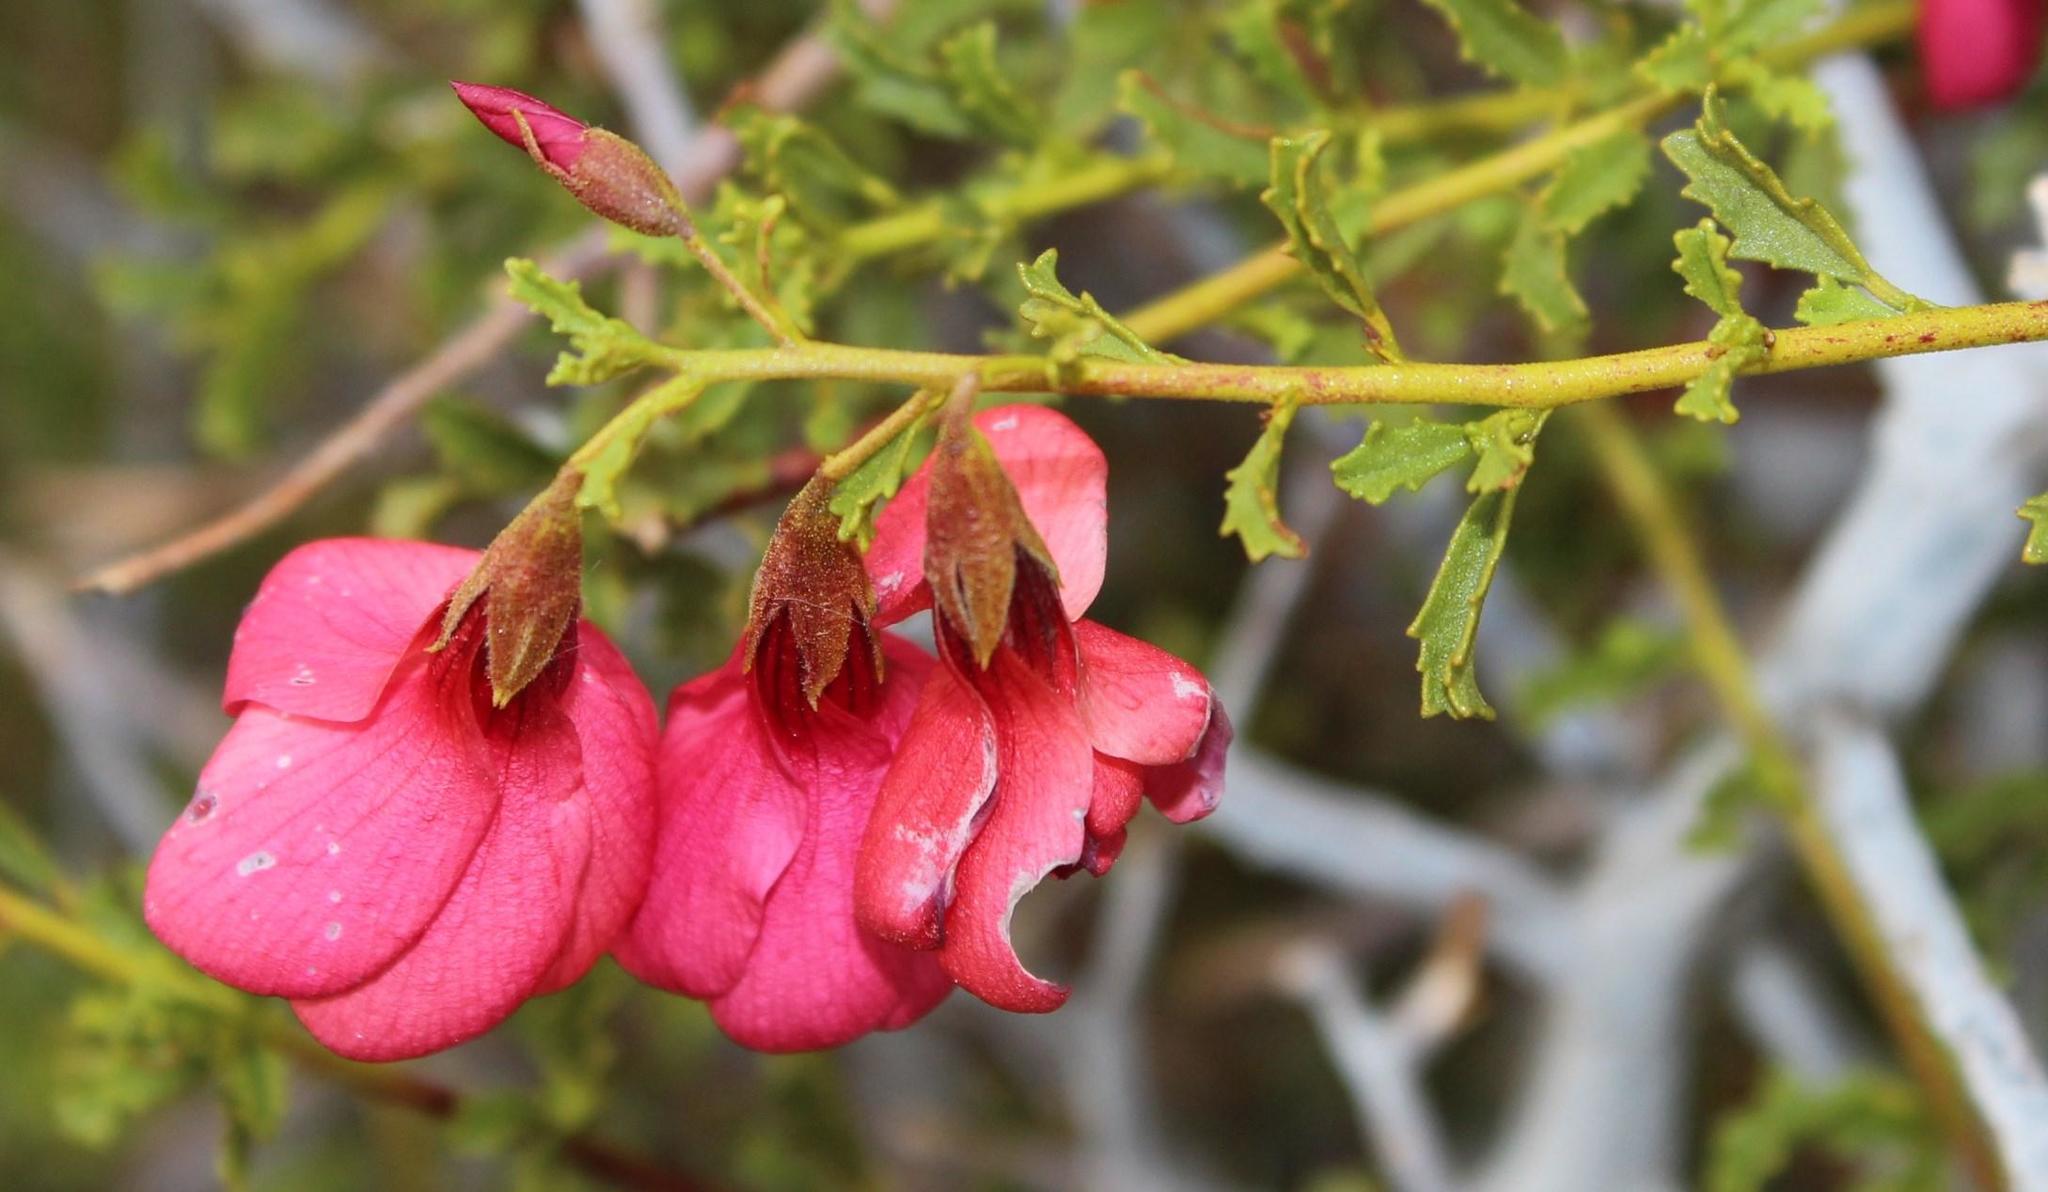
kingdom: Plantae
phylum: Tracheophyta
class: Magnoliopsida
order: Malvales
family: Malvaceae
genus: Hermannia
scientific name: Hermannia stricta
